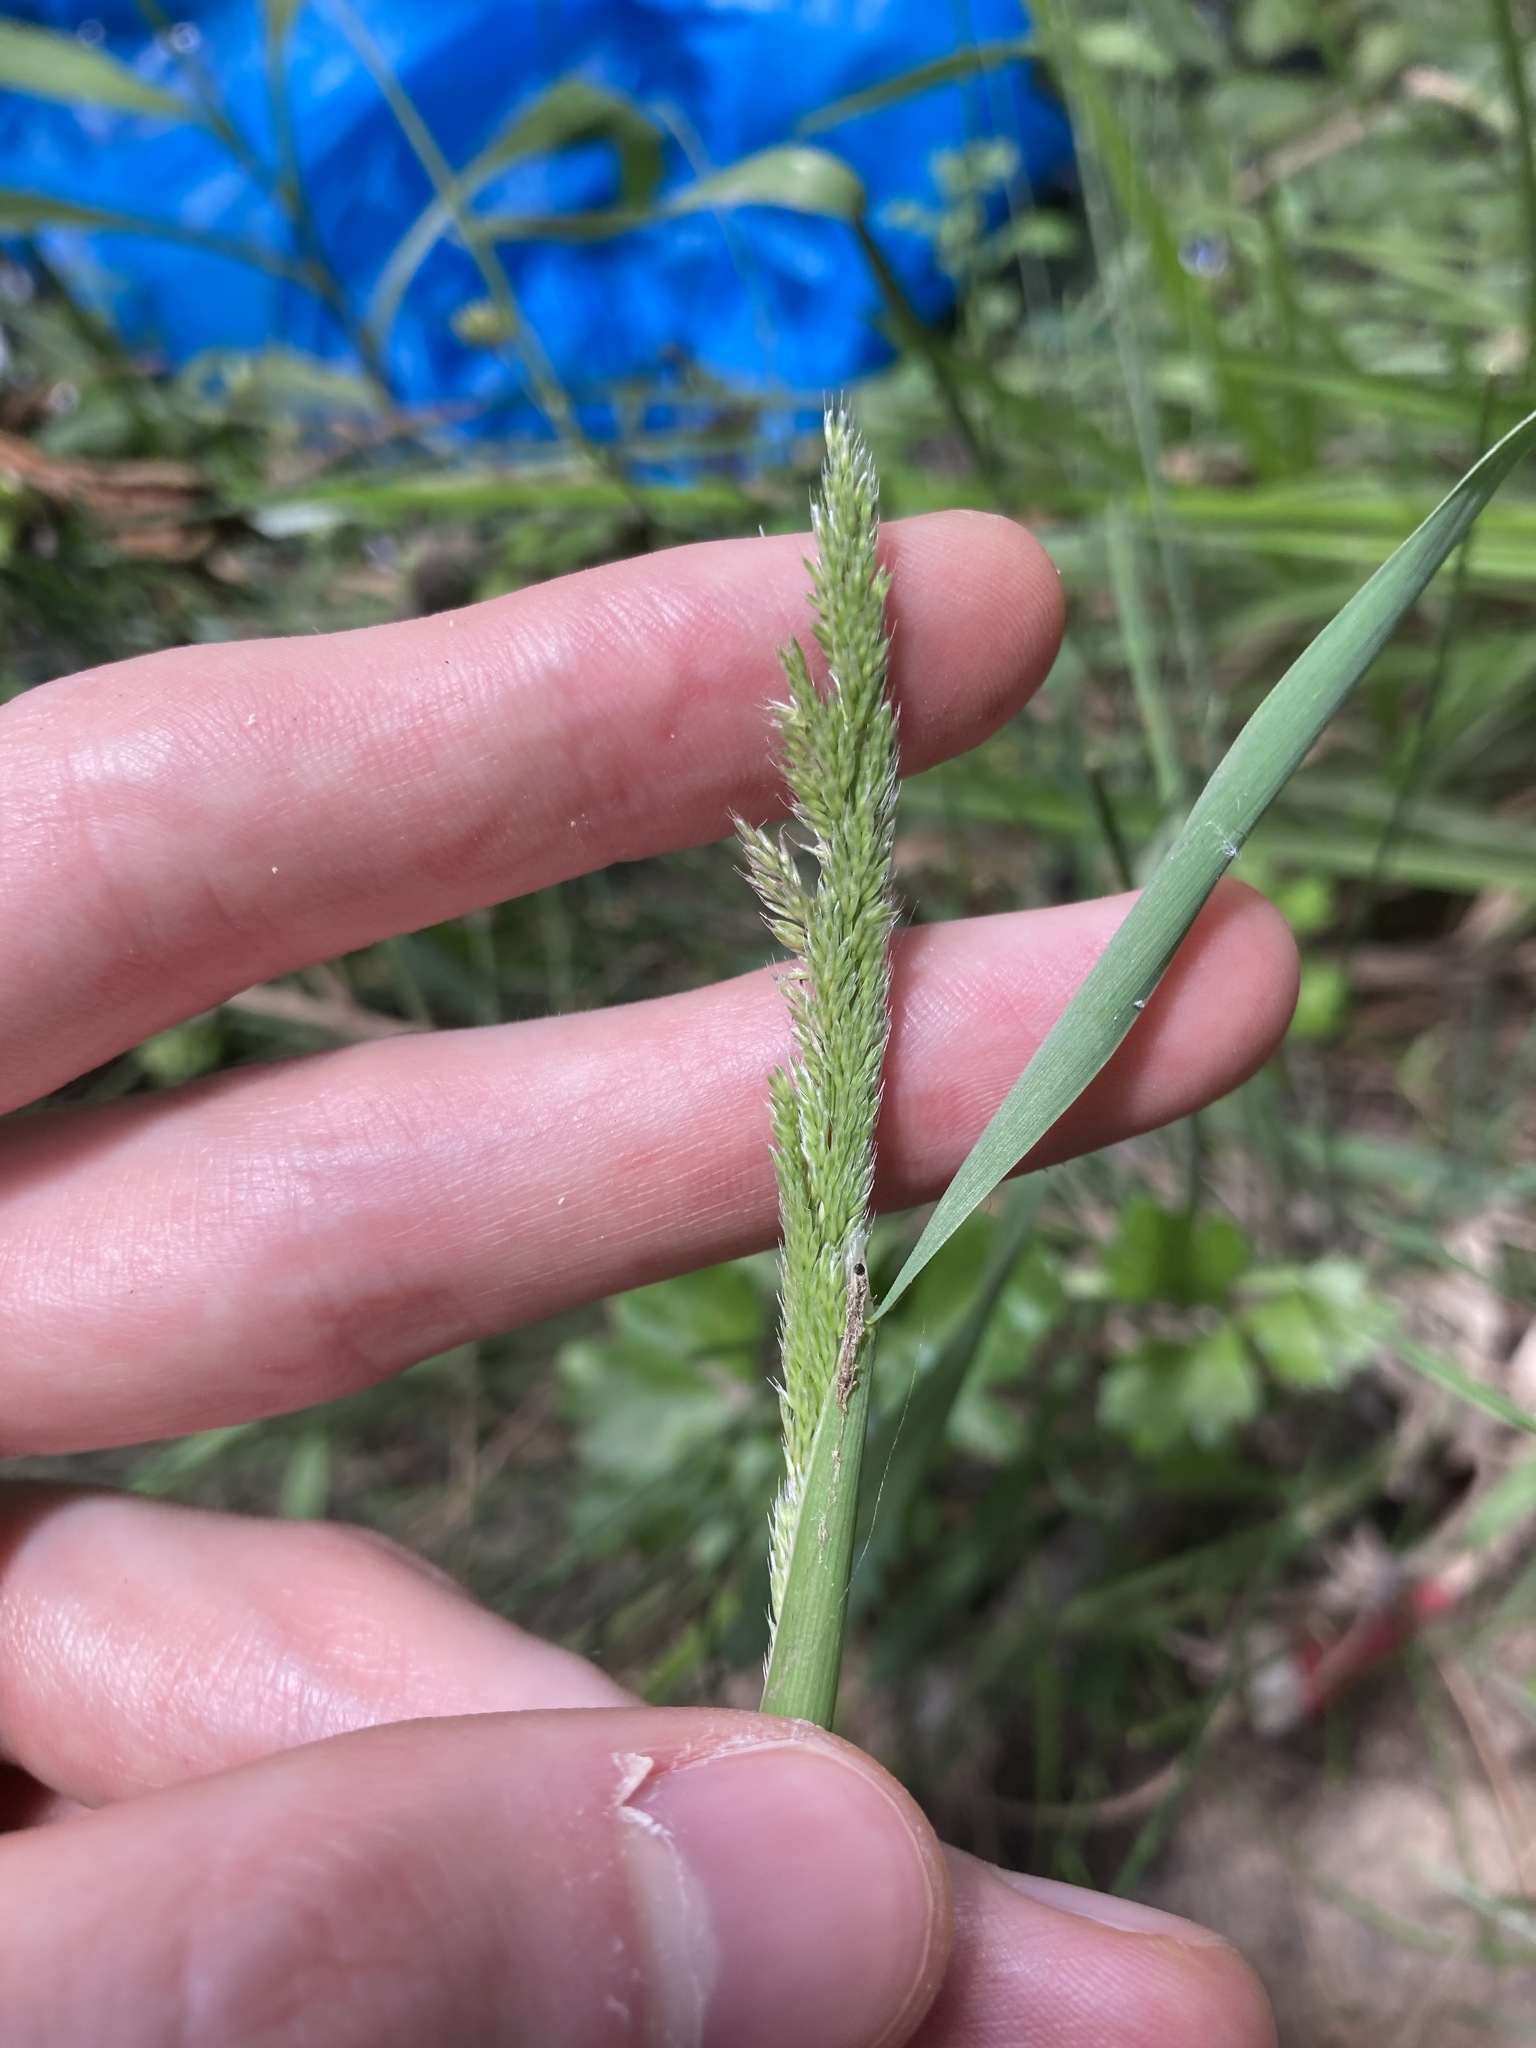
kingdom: Plantae
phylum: Tracheophyta
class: Liliopsida
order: Poales
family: Poaceae
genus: Holcus
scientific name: Holcus lanatus
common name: Yorkshire-fog
